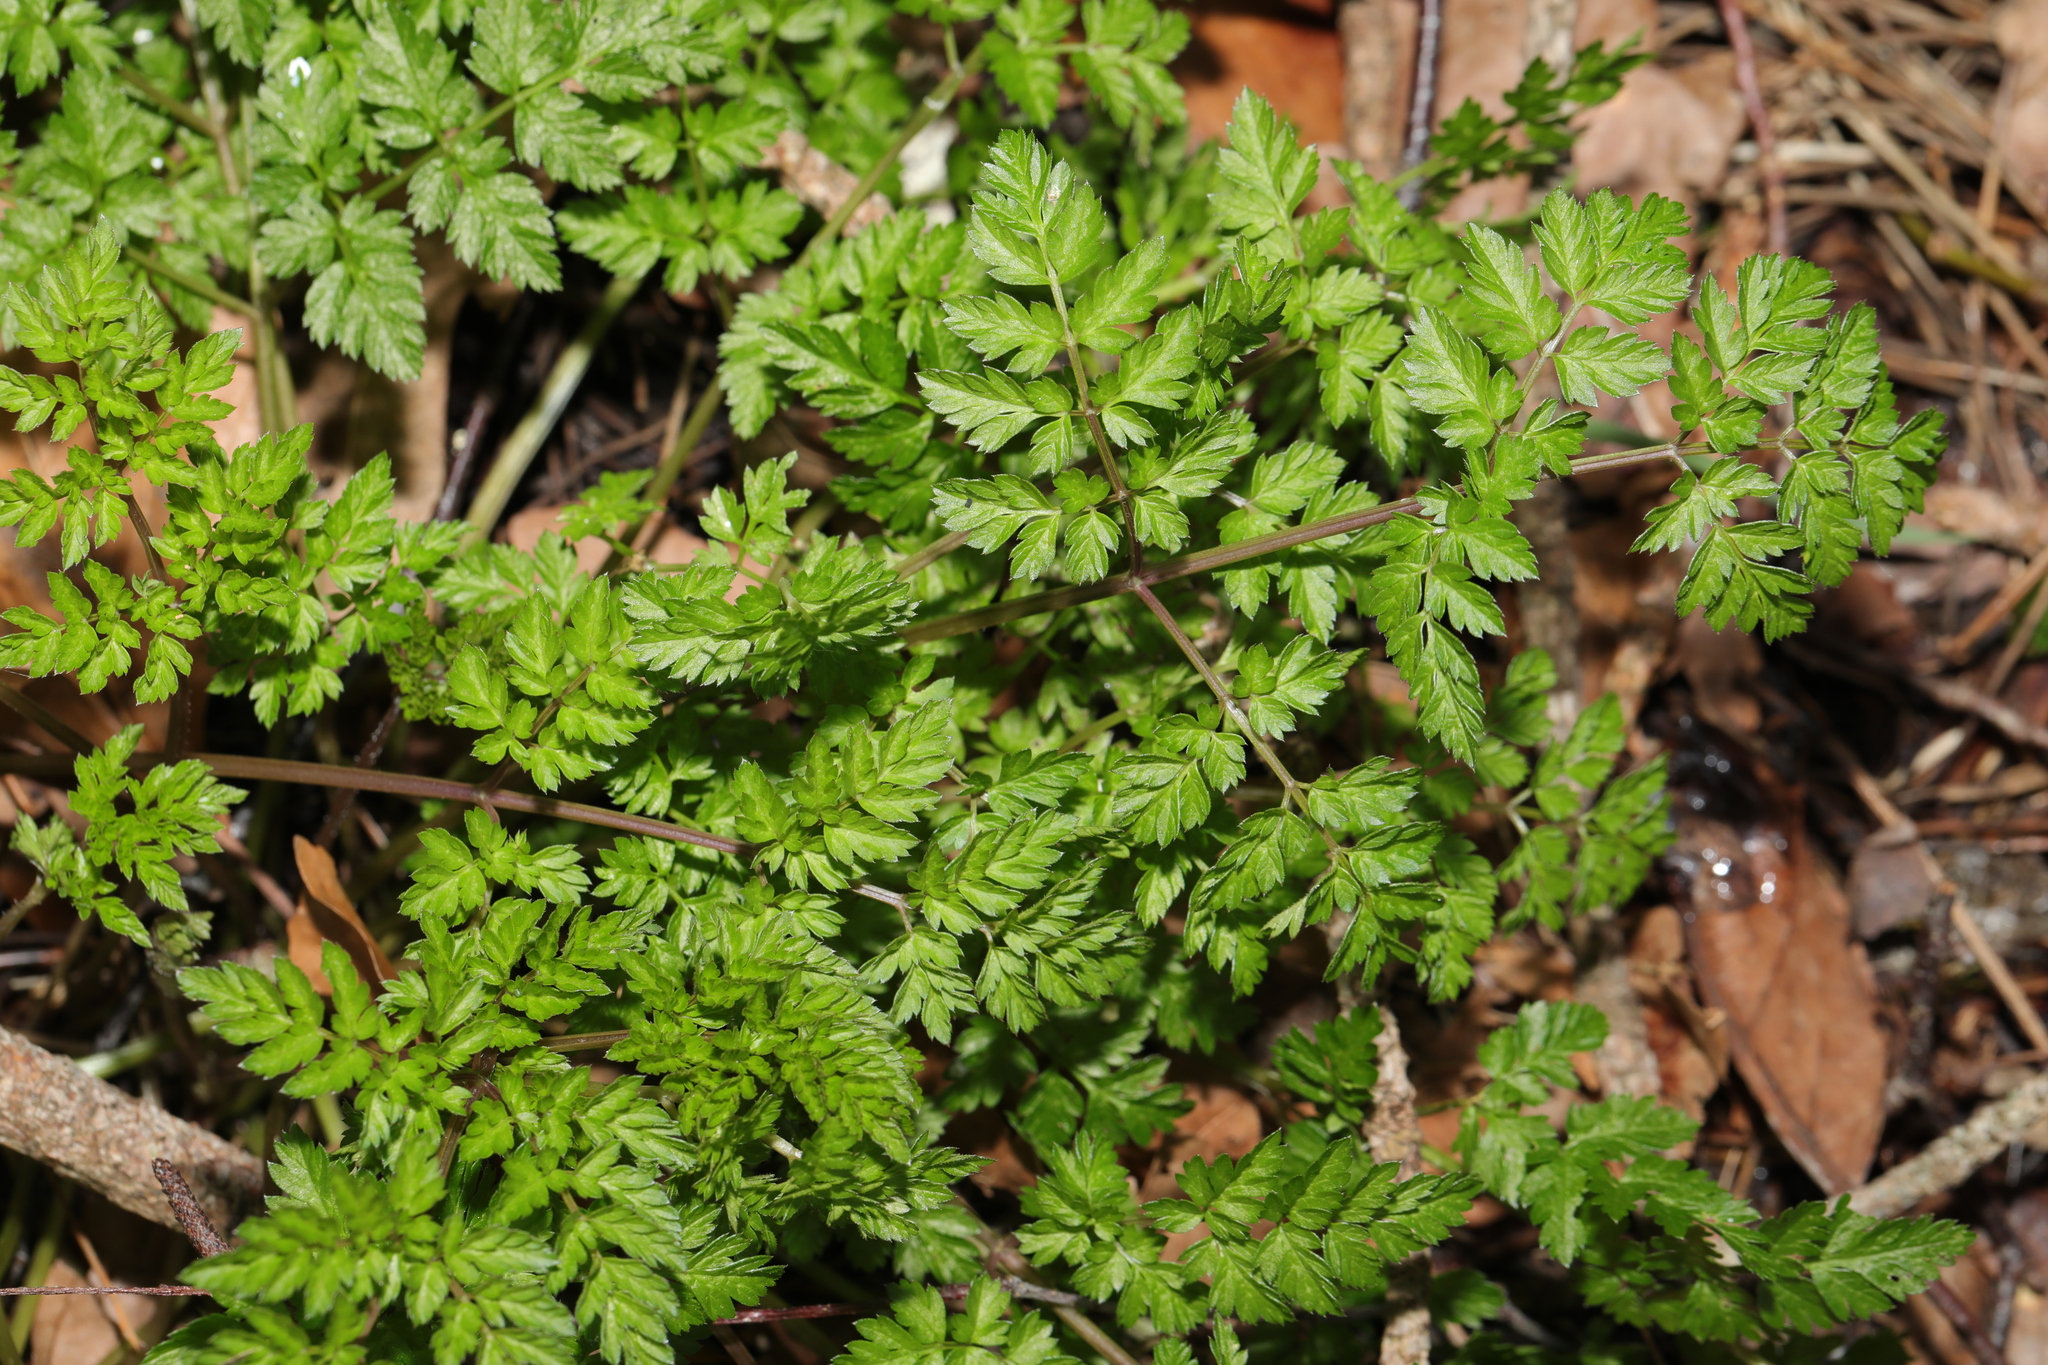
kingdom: Plantae
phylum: Tracheophyta
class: Magnoliopsida
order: Apiales
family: Apiaceae
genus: Anthriscus
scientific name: Anthriscus sylvestris
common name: Cow parsley
